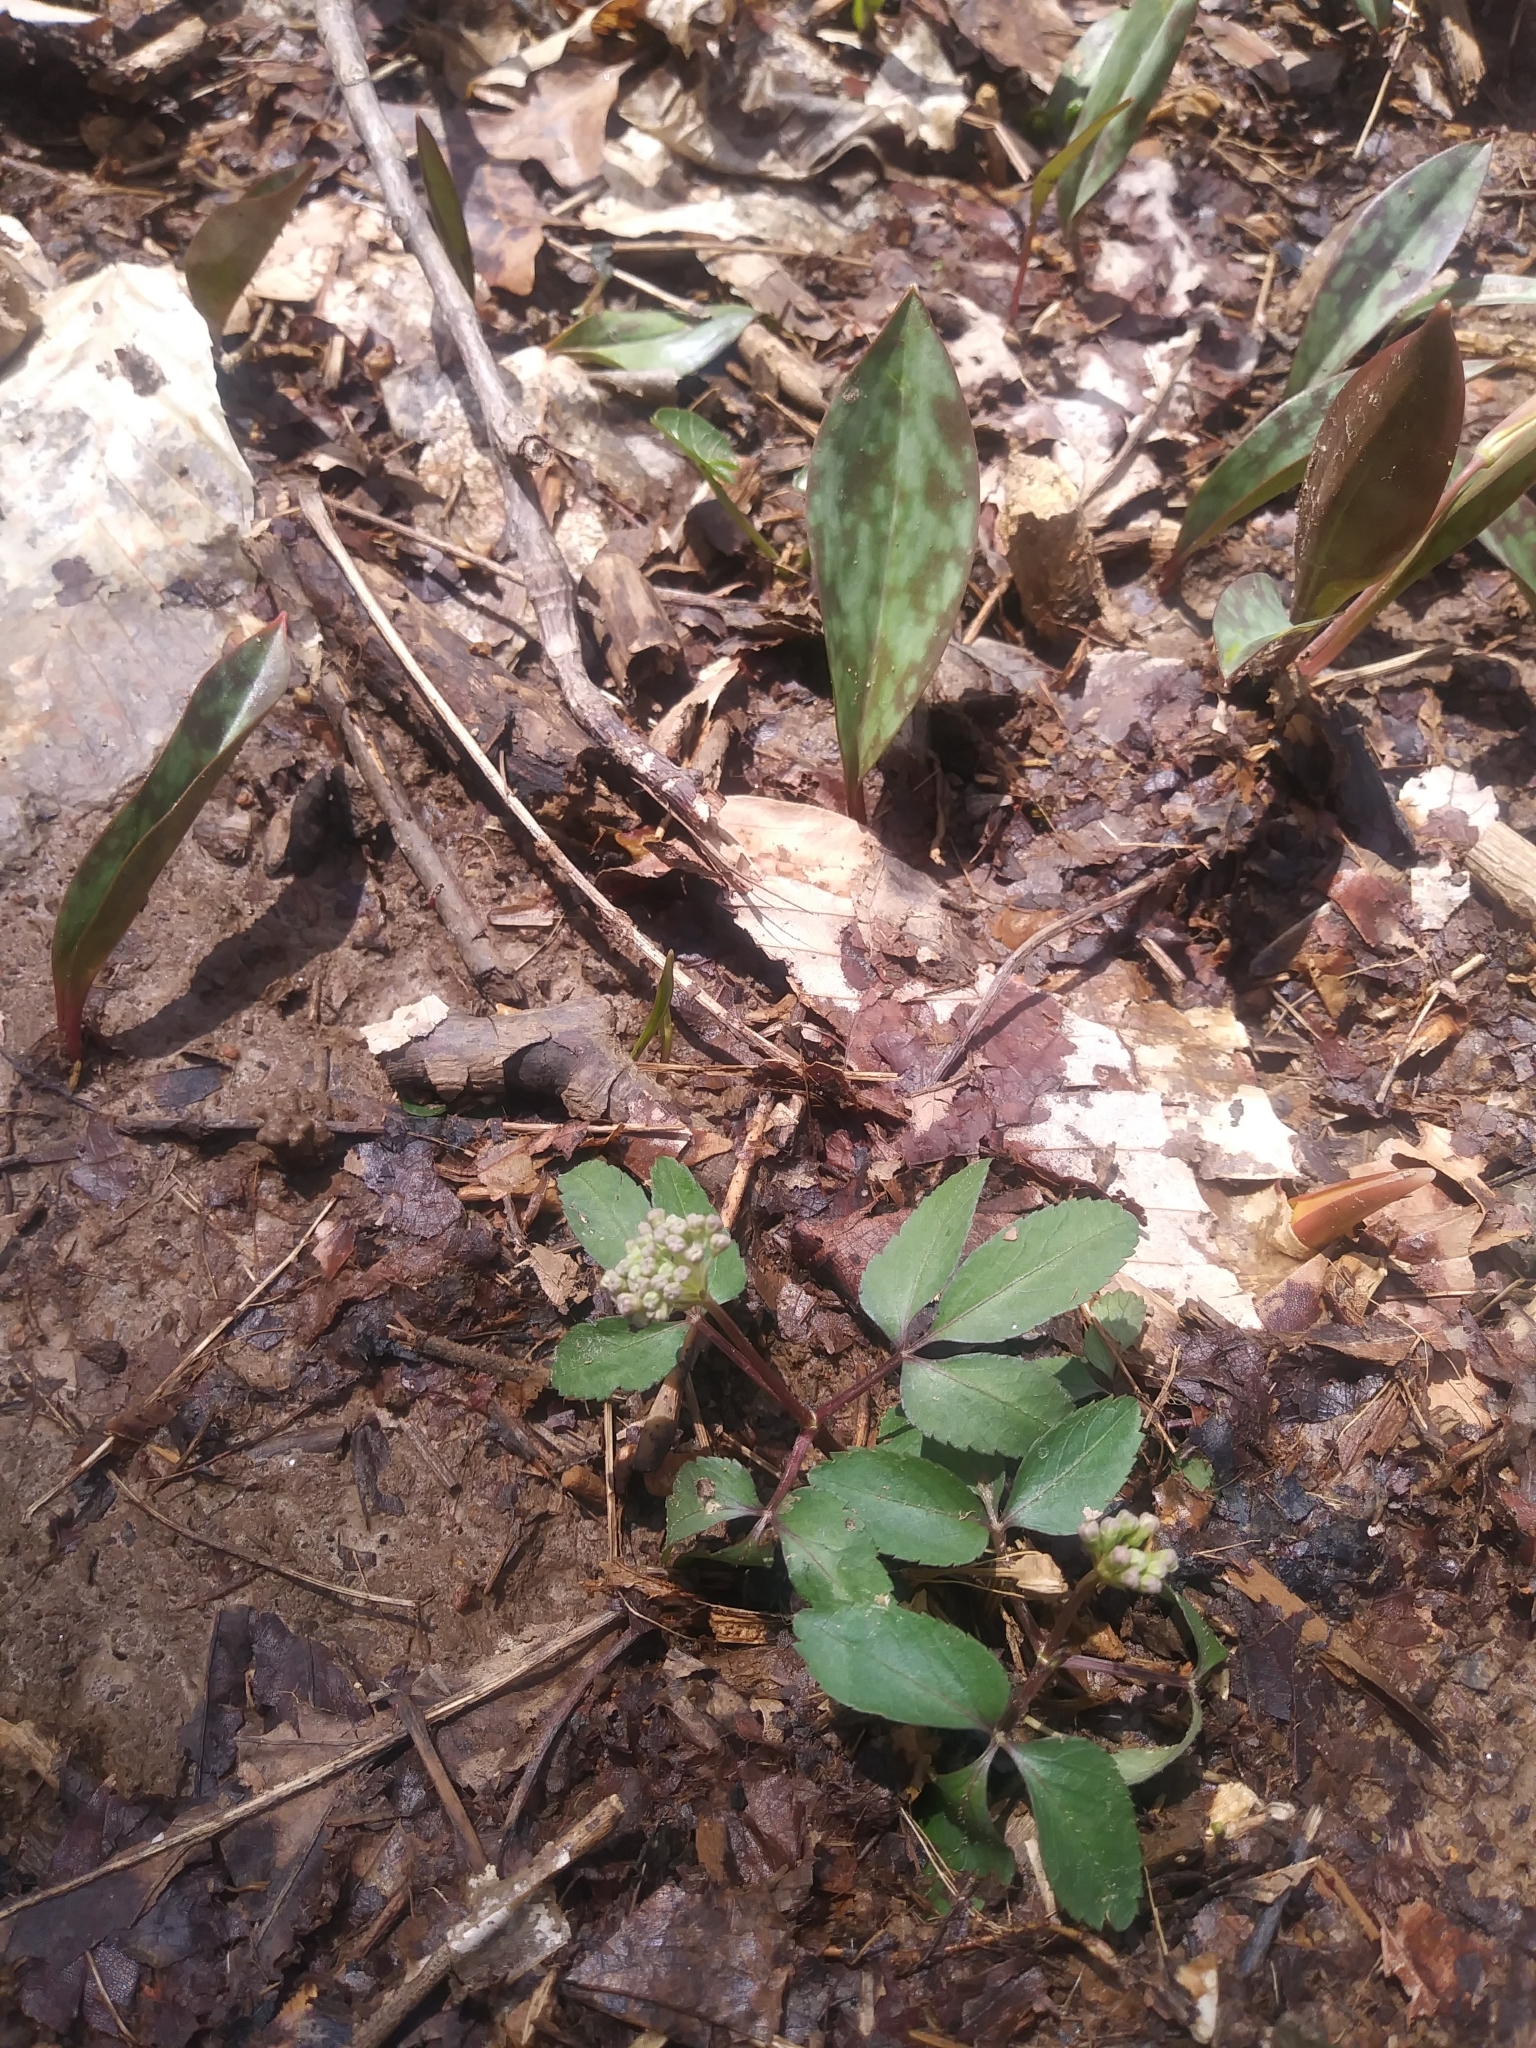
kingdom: Plantae
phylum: Tracheophyta
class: Magnoliopsida
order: Apiales
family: Araliaceae
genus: Panax
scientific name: Panax trifolius
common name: Dwarf ginseng
